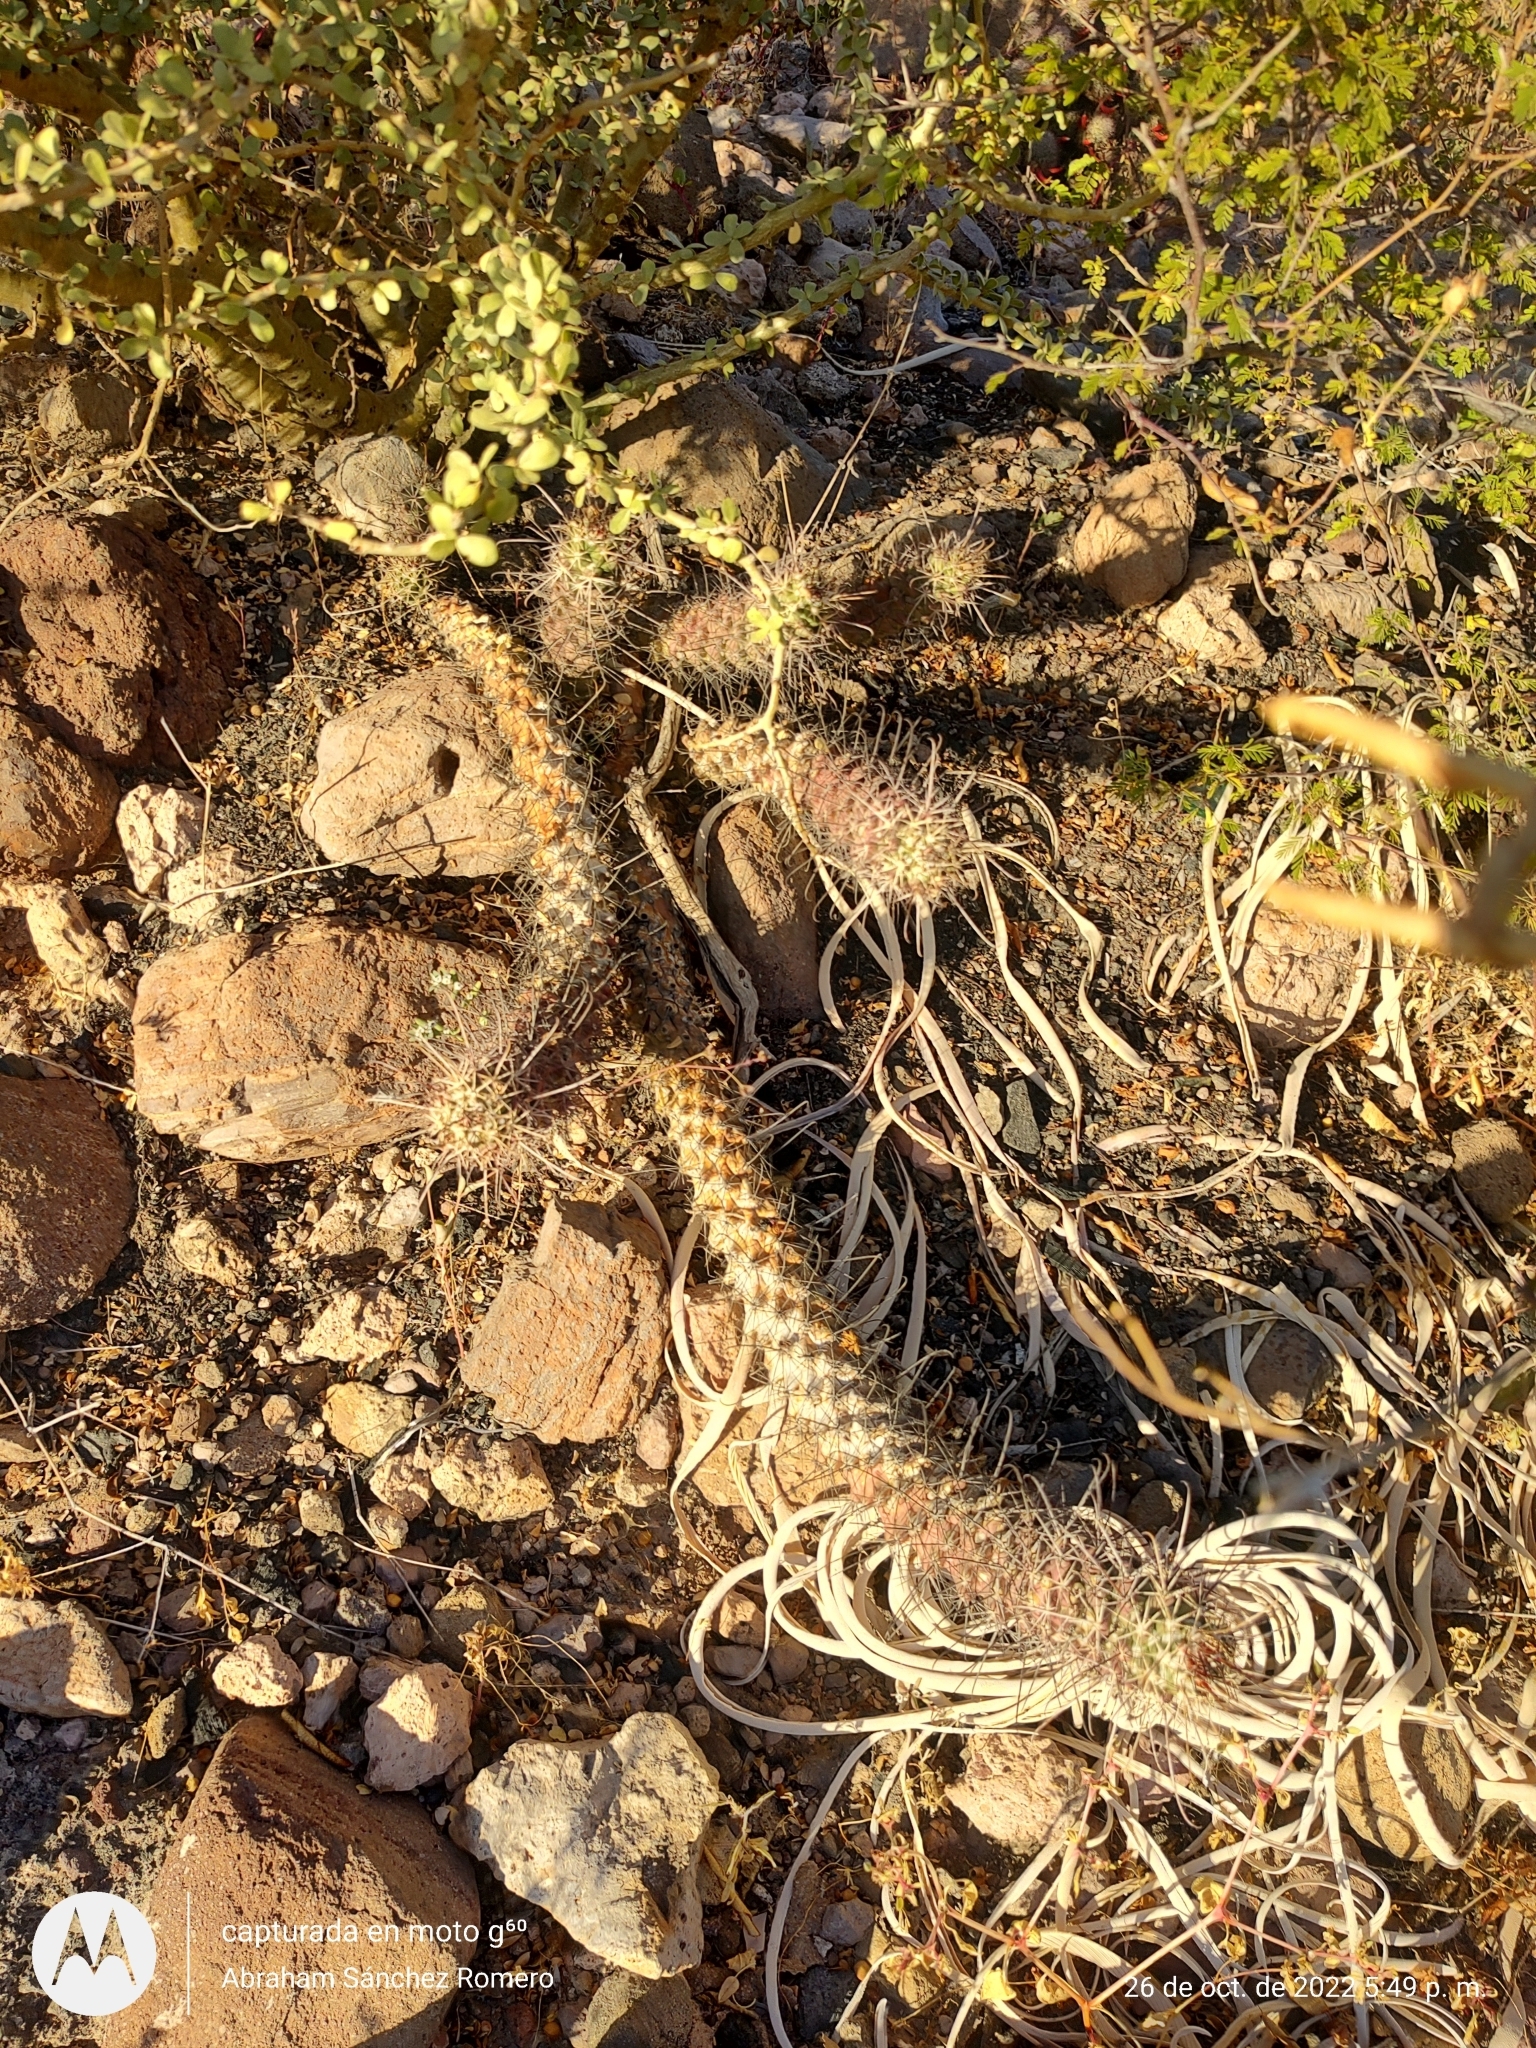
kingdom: Plantae
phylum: Tracheophyta
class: Magnoliopsida
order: Caryophyllales
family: Cactaceae
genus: Cochemiea
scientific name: Cochemiea poselgeri
